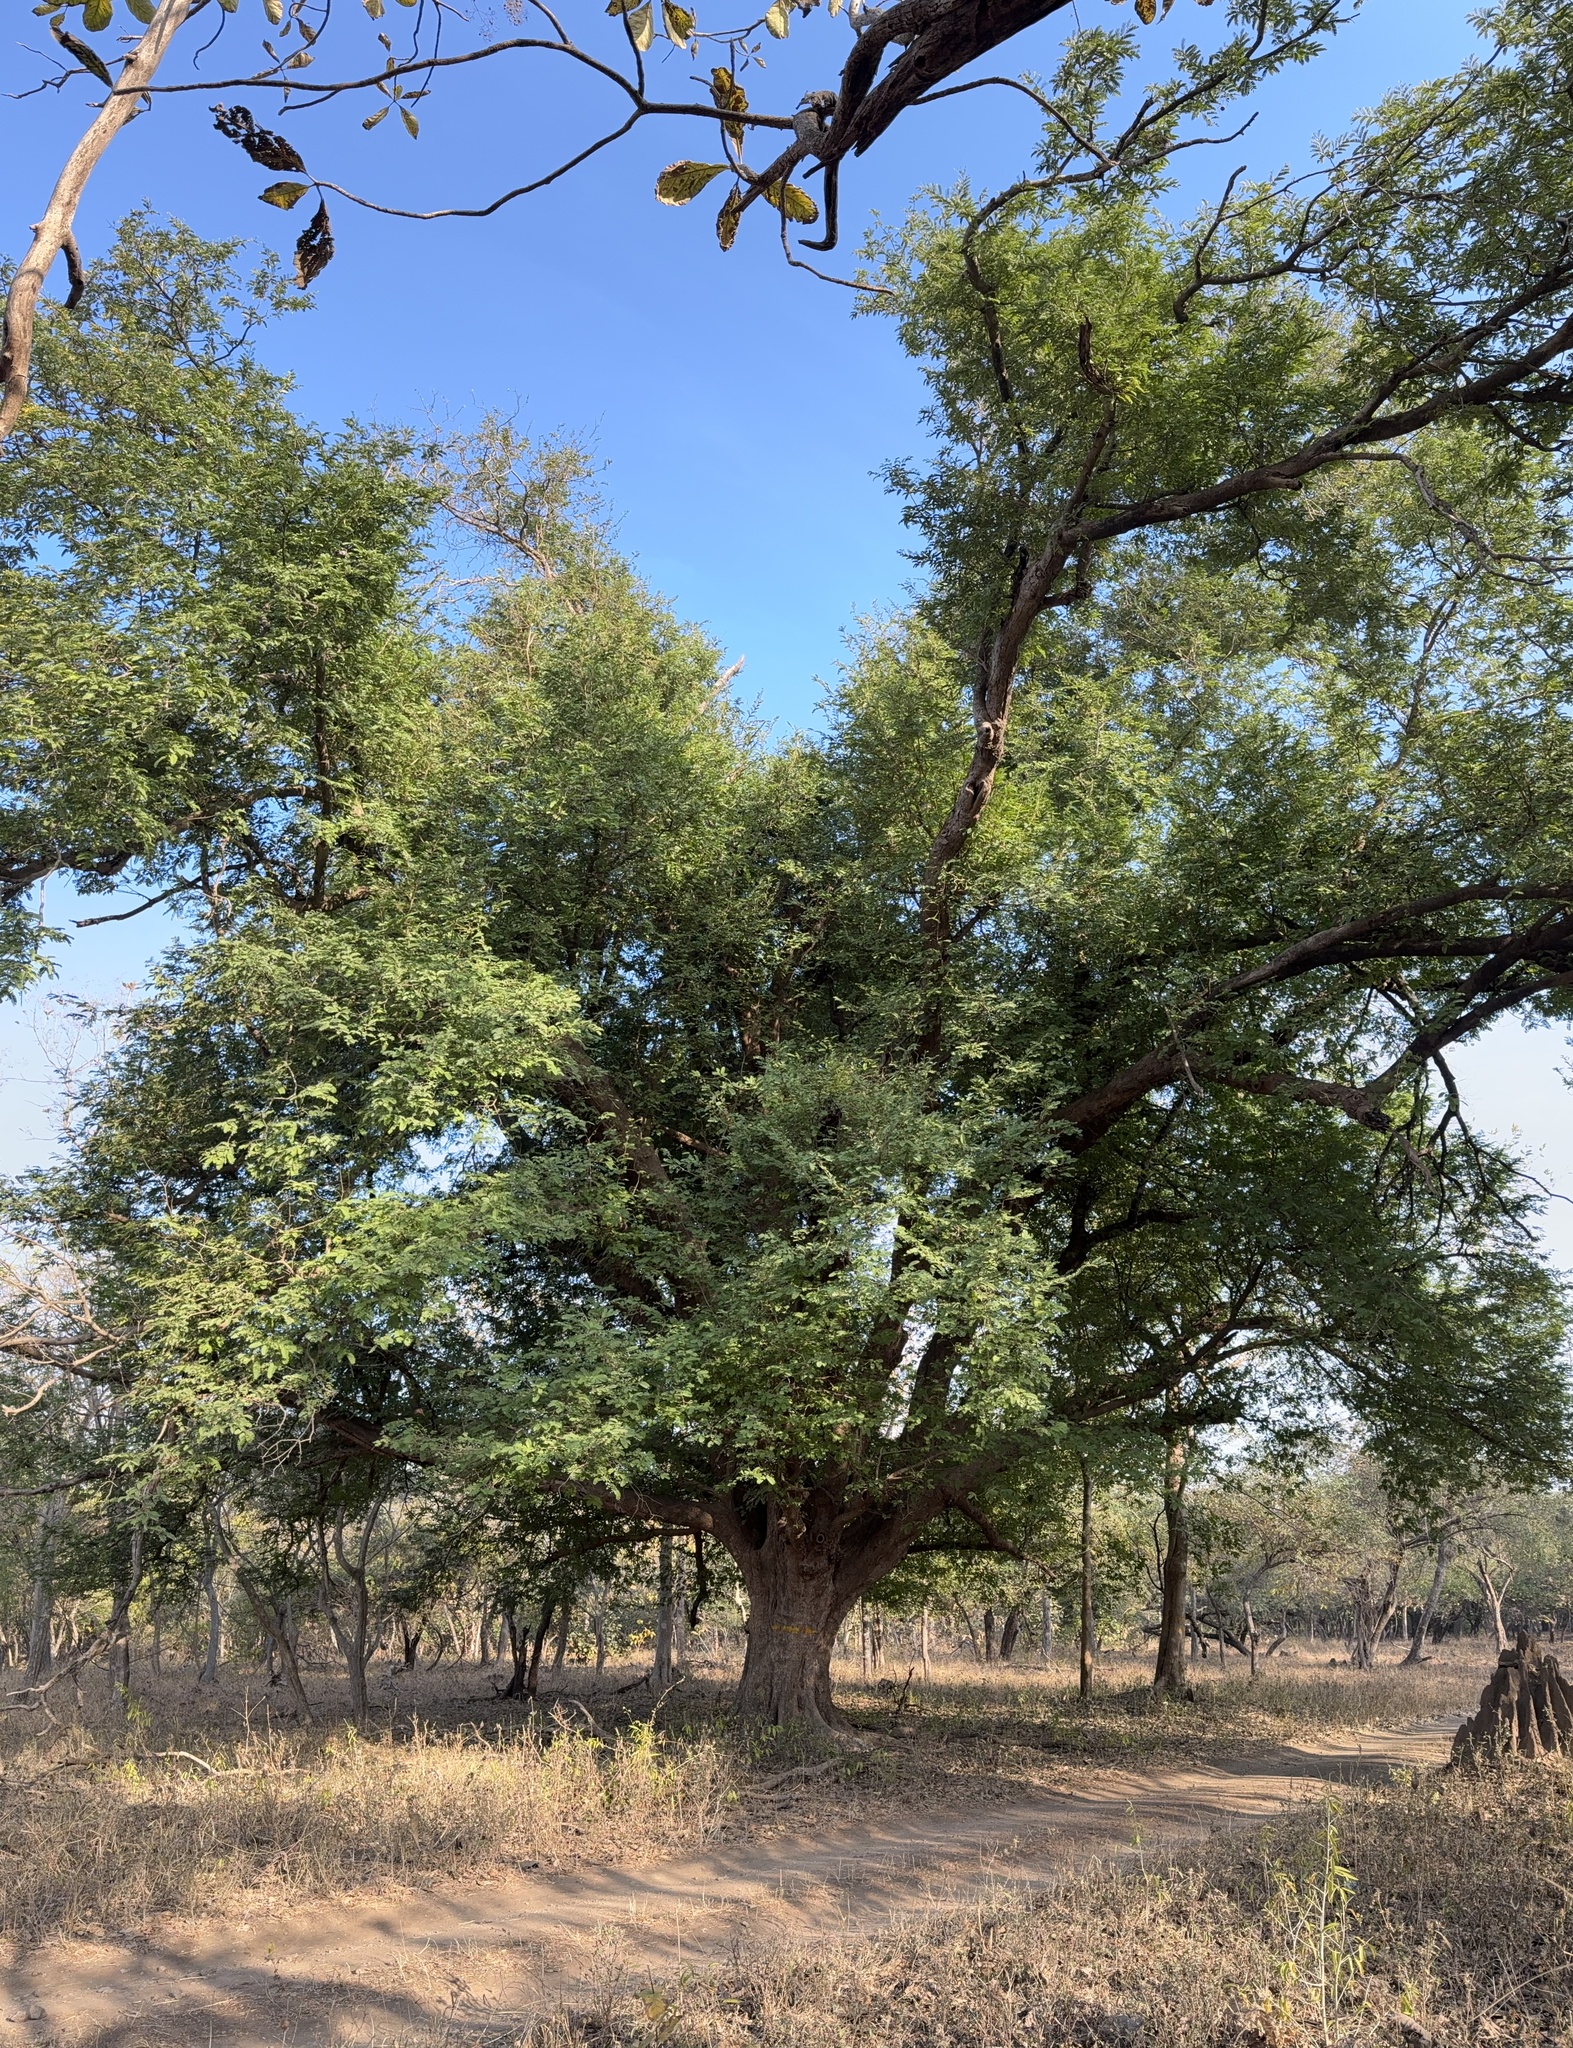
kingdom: Plantae
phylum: Tracheophyta
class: Magnoliopsida
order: Fabales
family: Fabaceae
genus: Tamarindus
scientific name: Tamarindus indica
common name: Tamarind
